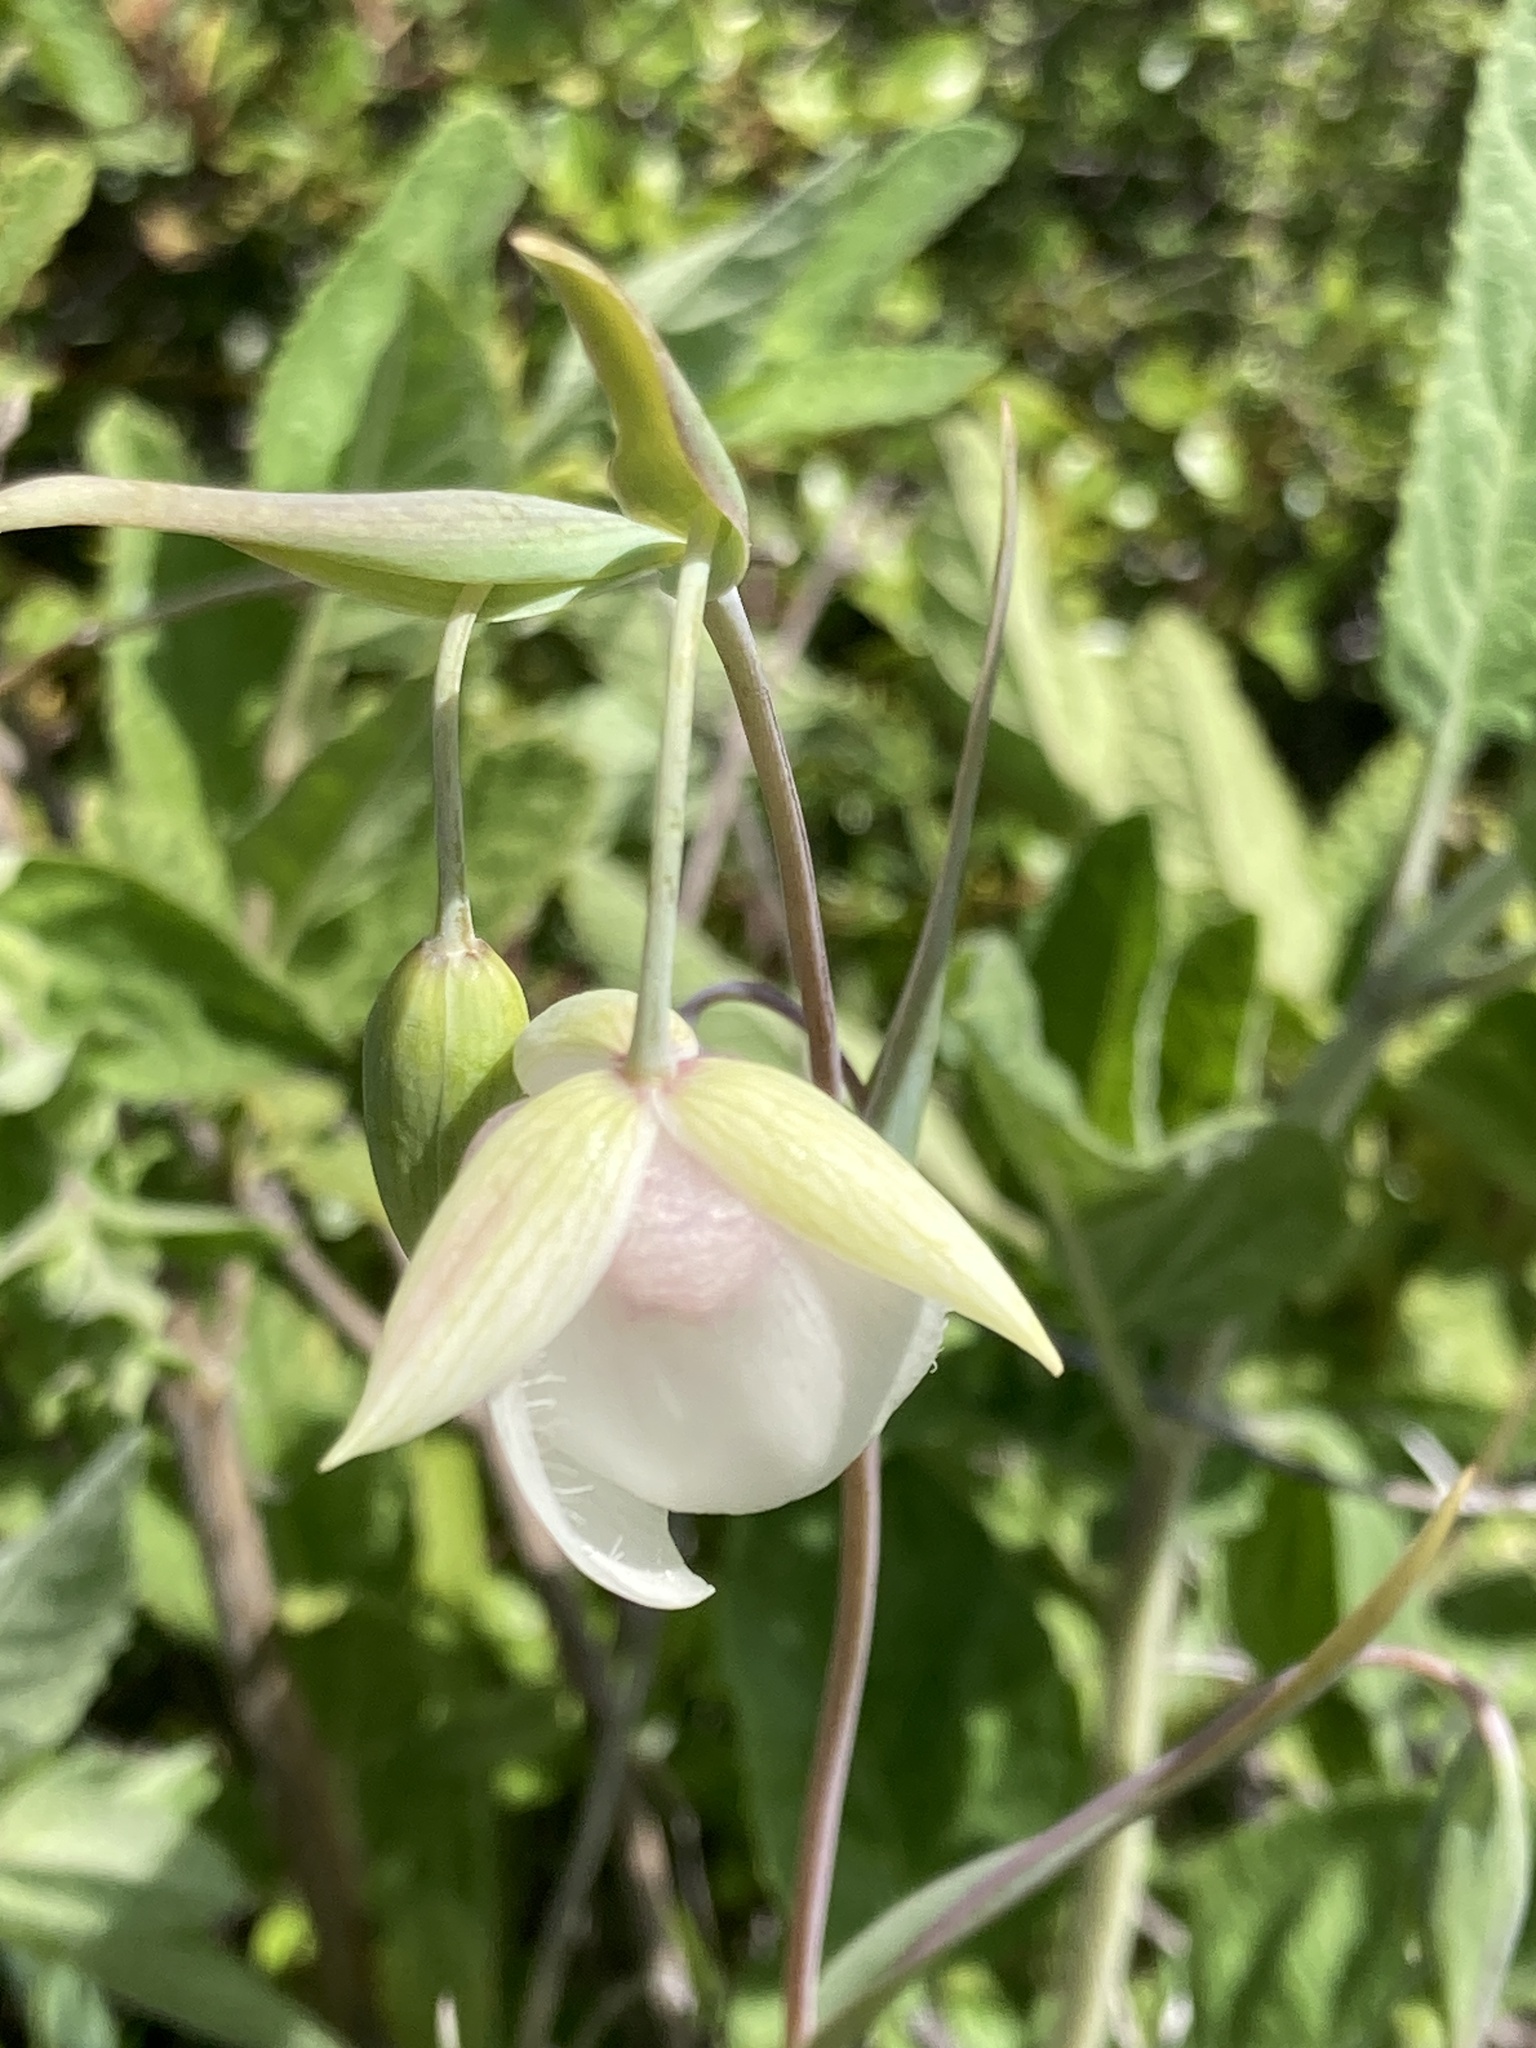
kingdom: Plantae
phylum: Tracheophyta
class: Liliopsida
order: Liliales
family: Liliaceae
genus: Calochortus
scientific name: Calochortus albus
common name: Fairy-lantern
